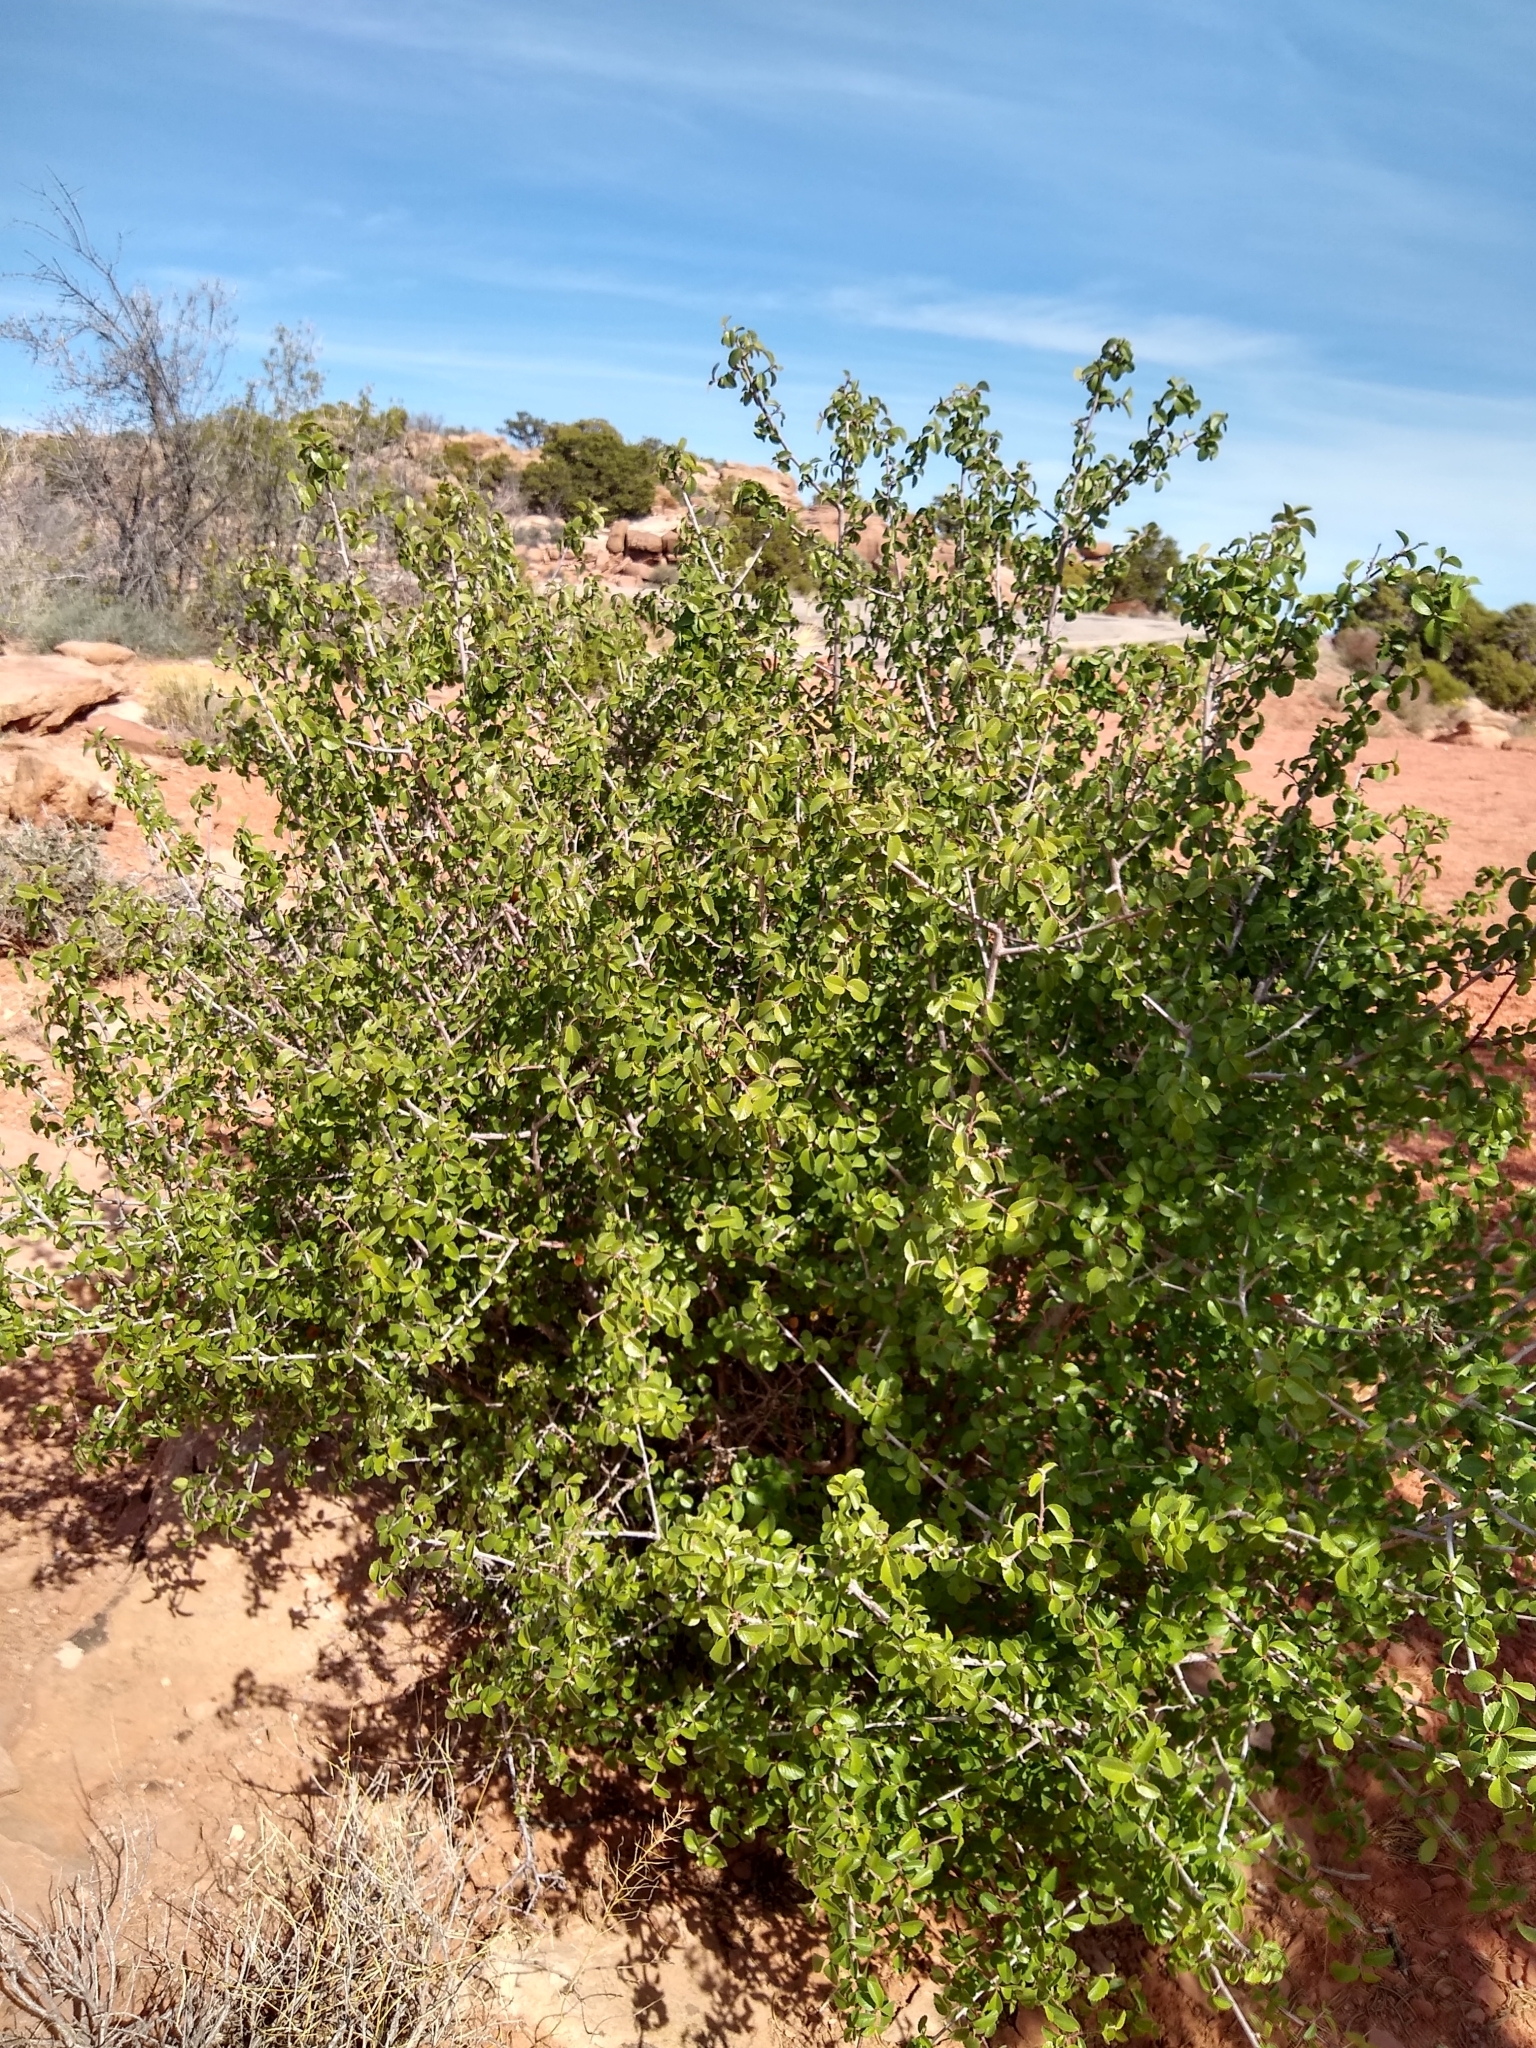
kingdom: Plantae
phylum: Tracheophyta
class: Magnoliopsida
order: Rosales
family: Rosaceae
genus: Amelanchier
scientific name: Amelanchier utahensis
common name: Utah serviceberry
